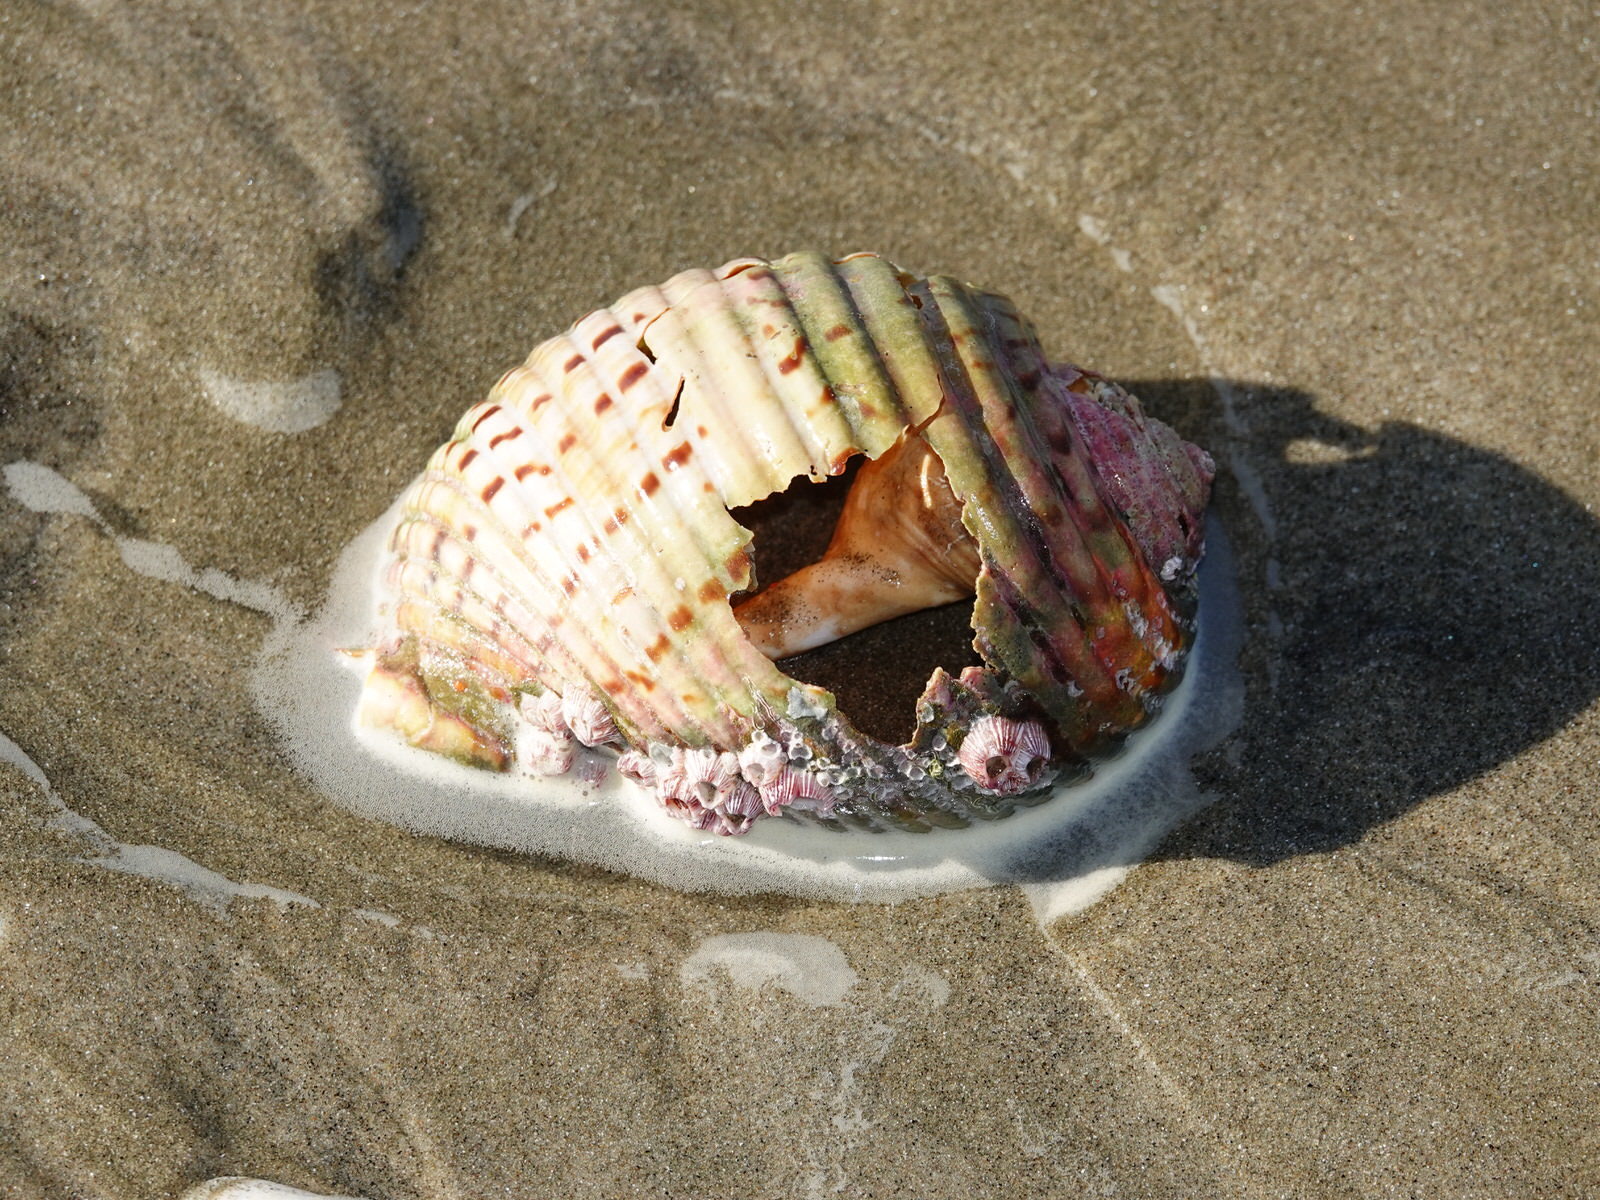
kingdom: Animalia
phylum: Mollusca
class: Gastropoda
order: Littorinimorpha
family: Tonnidae
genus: Tonna
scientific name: Tonna tankervillii
